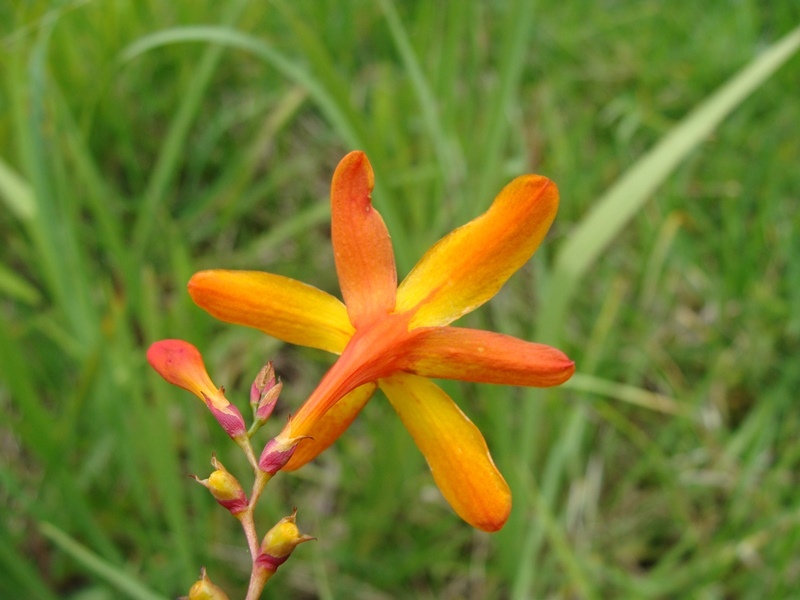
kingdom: Plantae
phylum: Tracheophyta
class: Liliopsida
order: Asparagales
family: Iridaceae
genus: Crocosmia
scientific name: Crocosmia crocosmiiflora
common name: Montbretia
